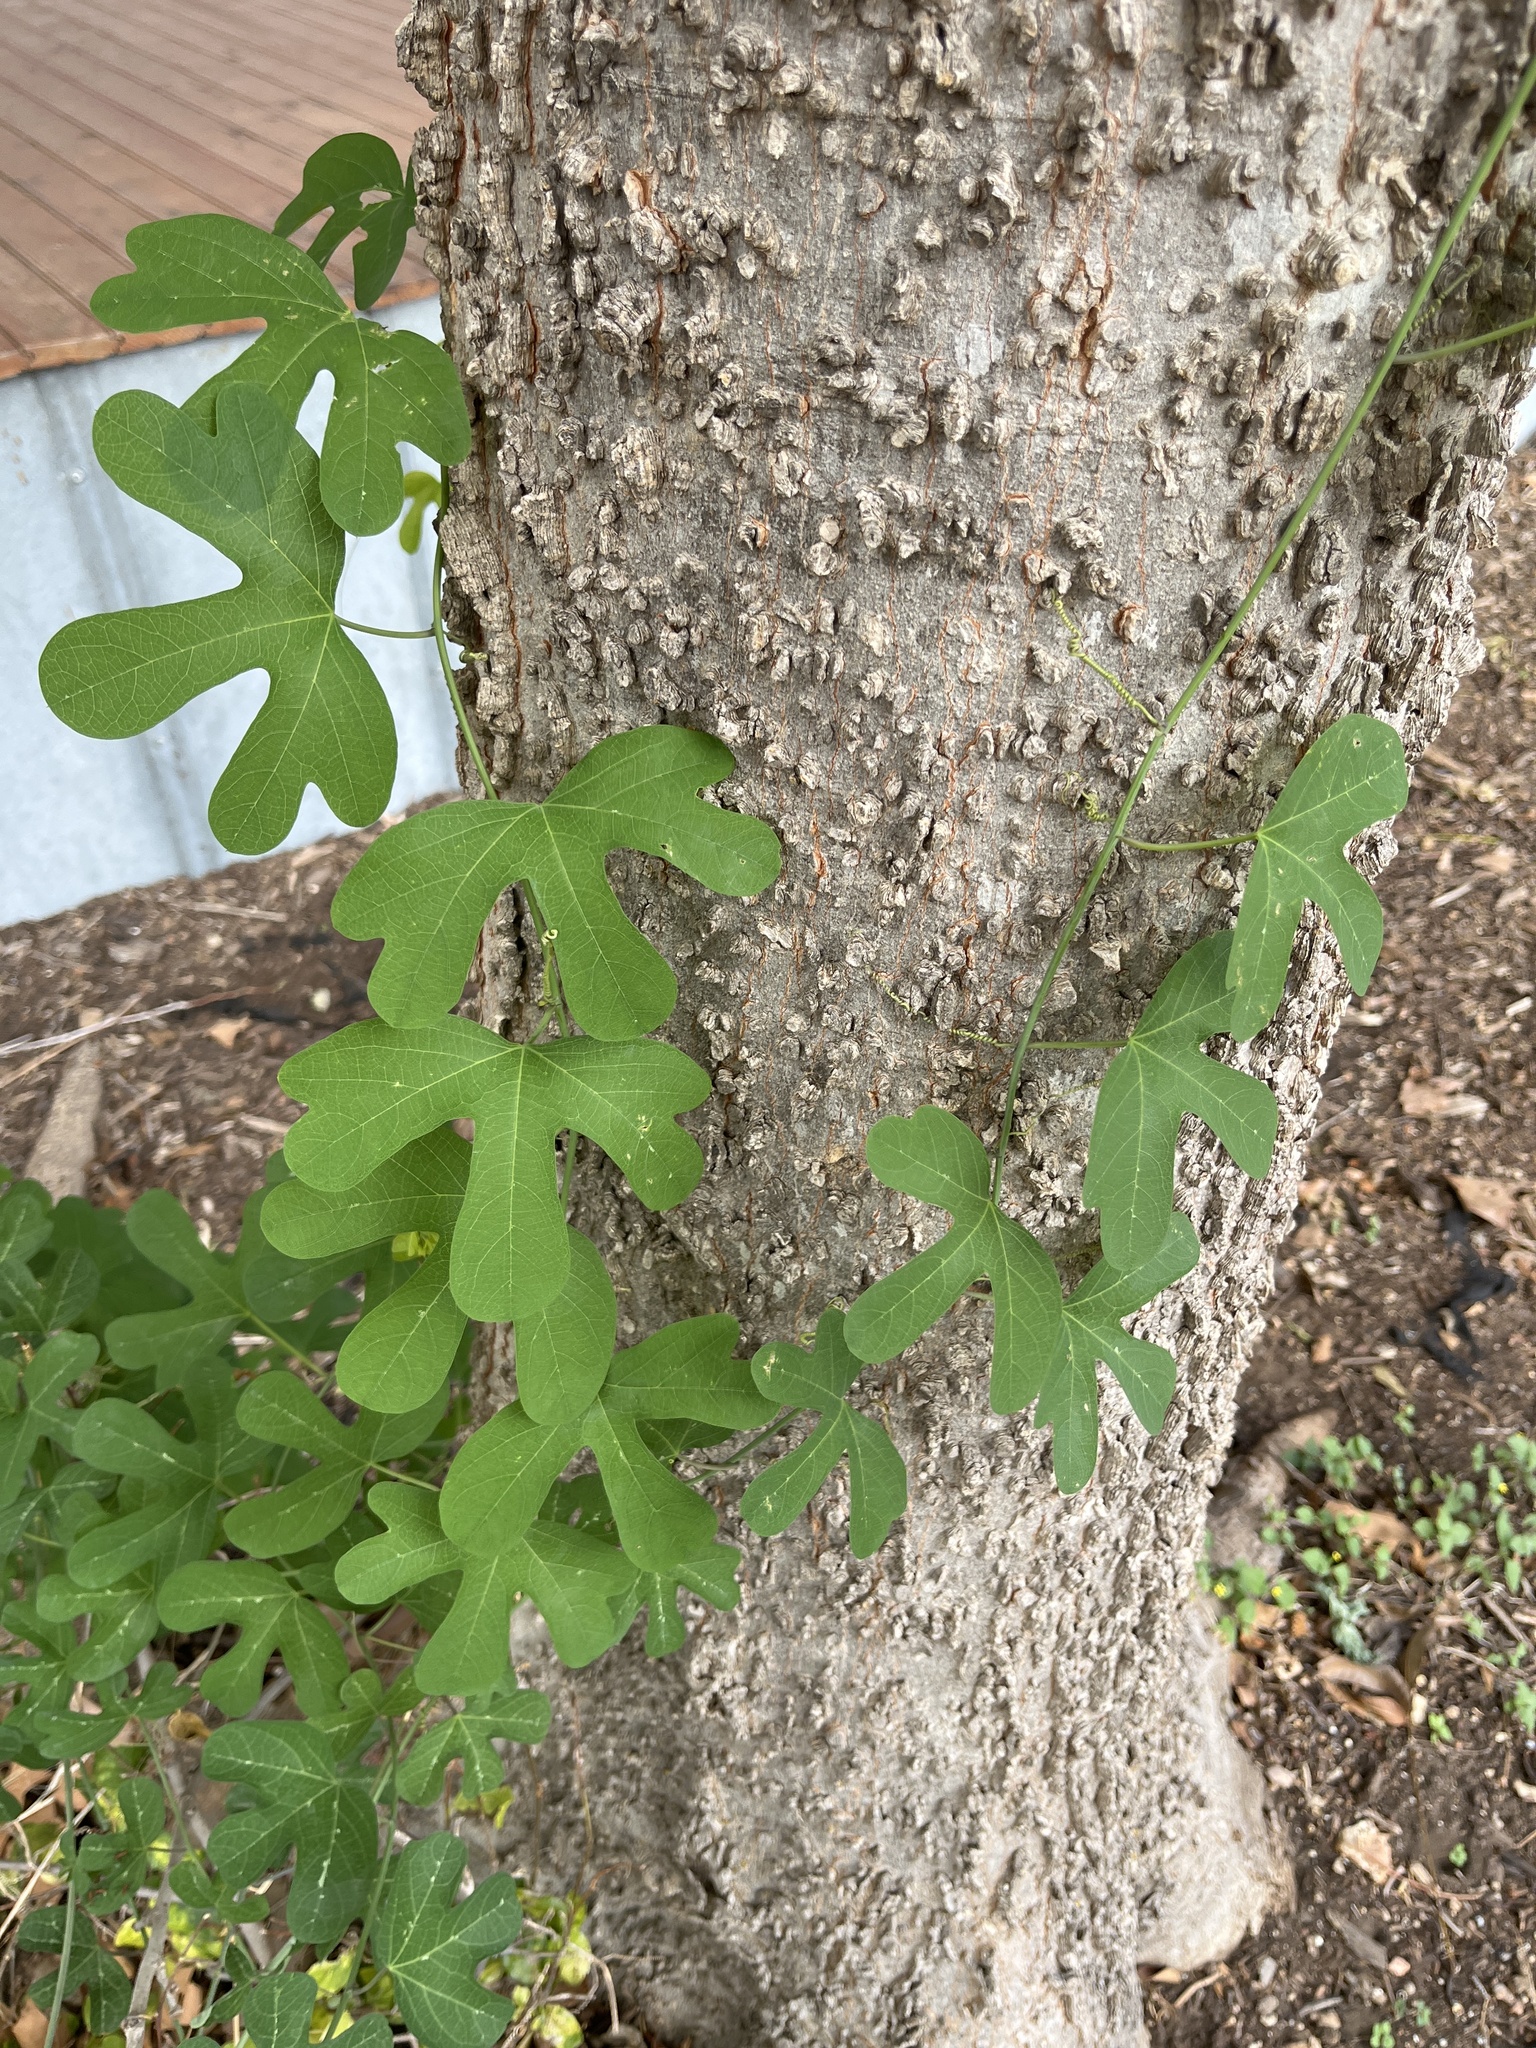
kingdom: Plantae
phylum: Tracheophyta
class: Magnoliopsida
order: Malpighiales
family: Passifloraceae
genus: Passiflora
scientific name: Passiflora affinis
